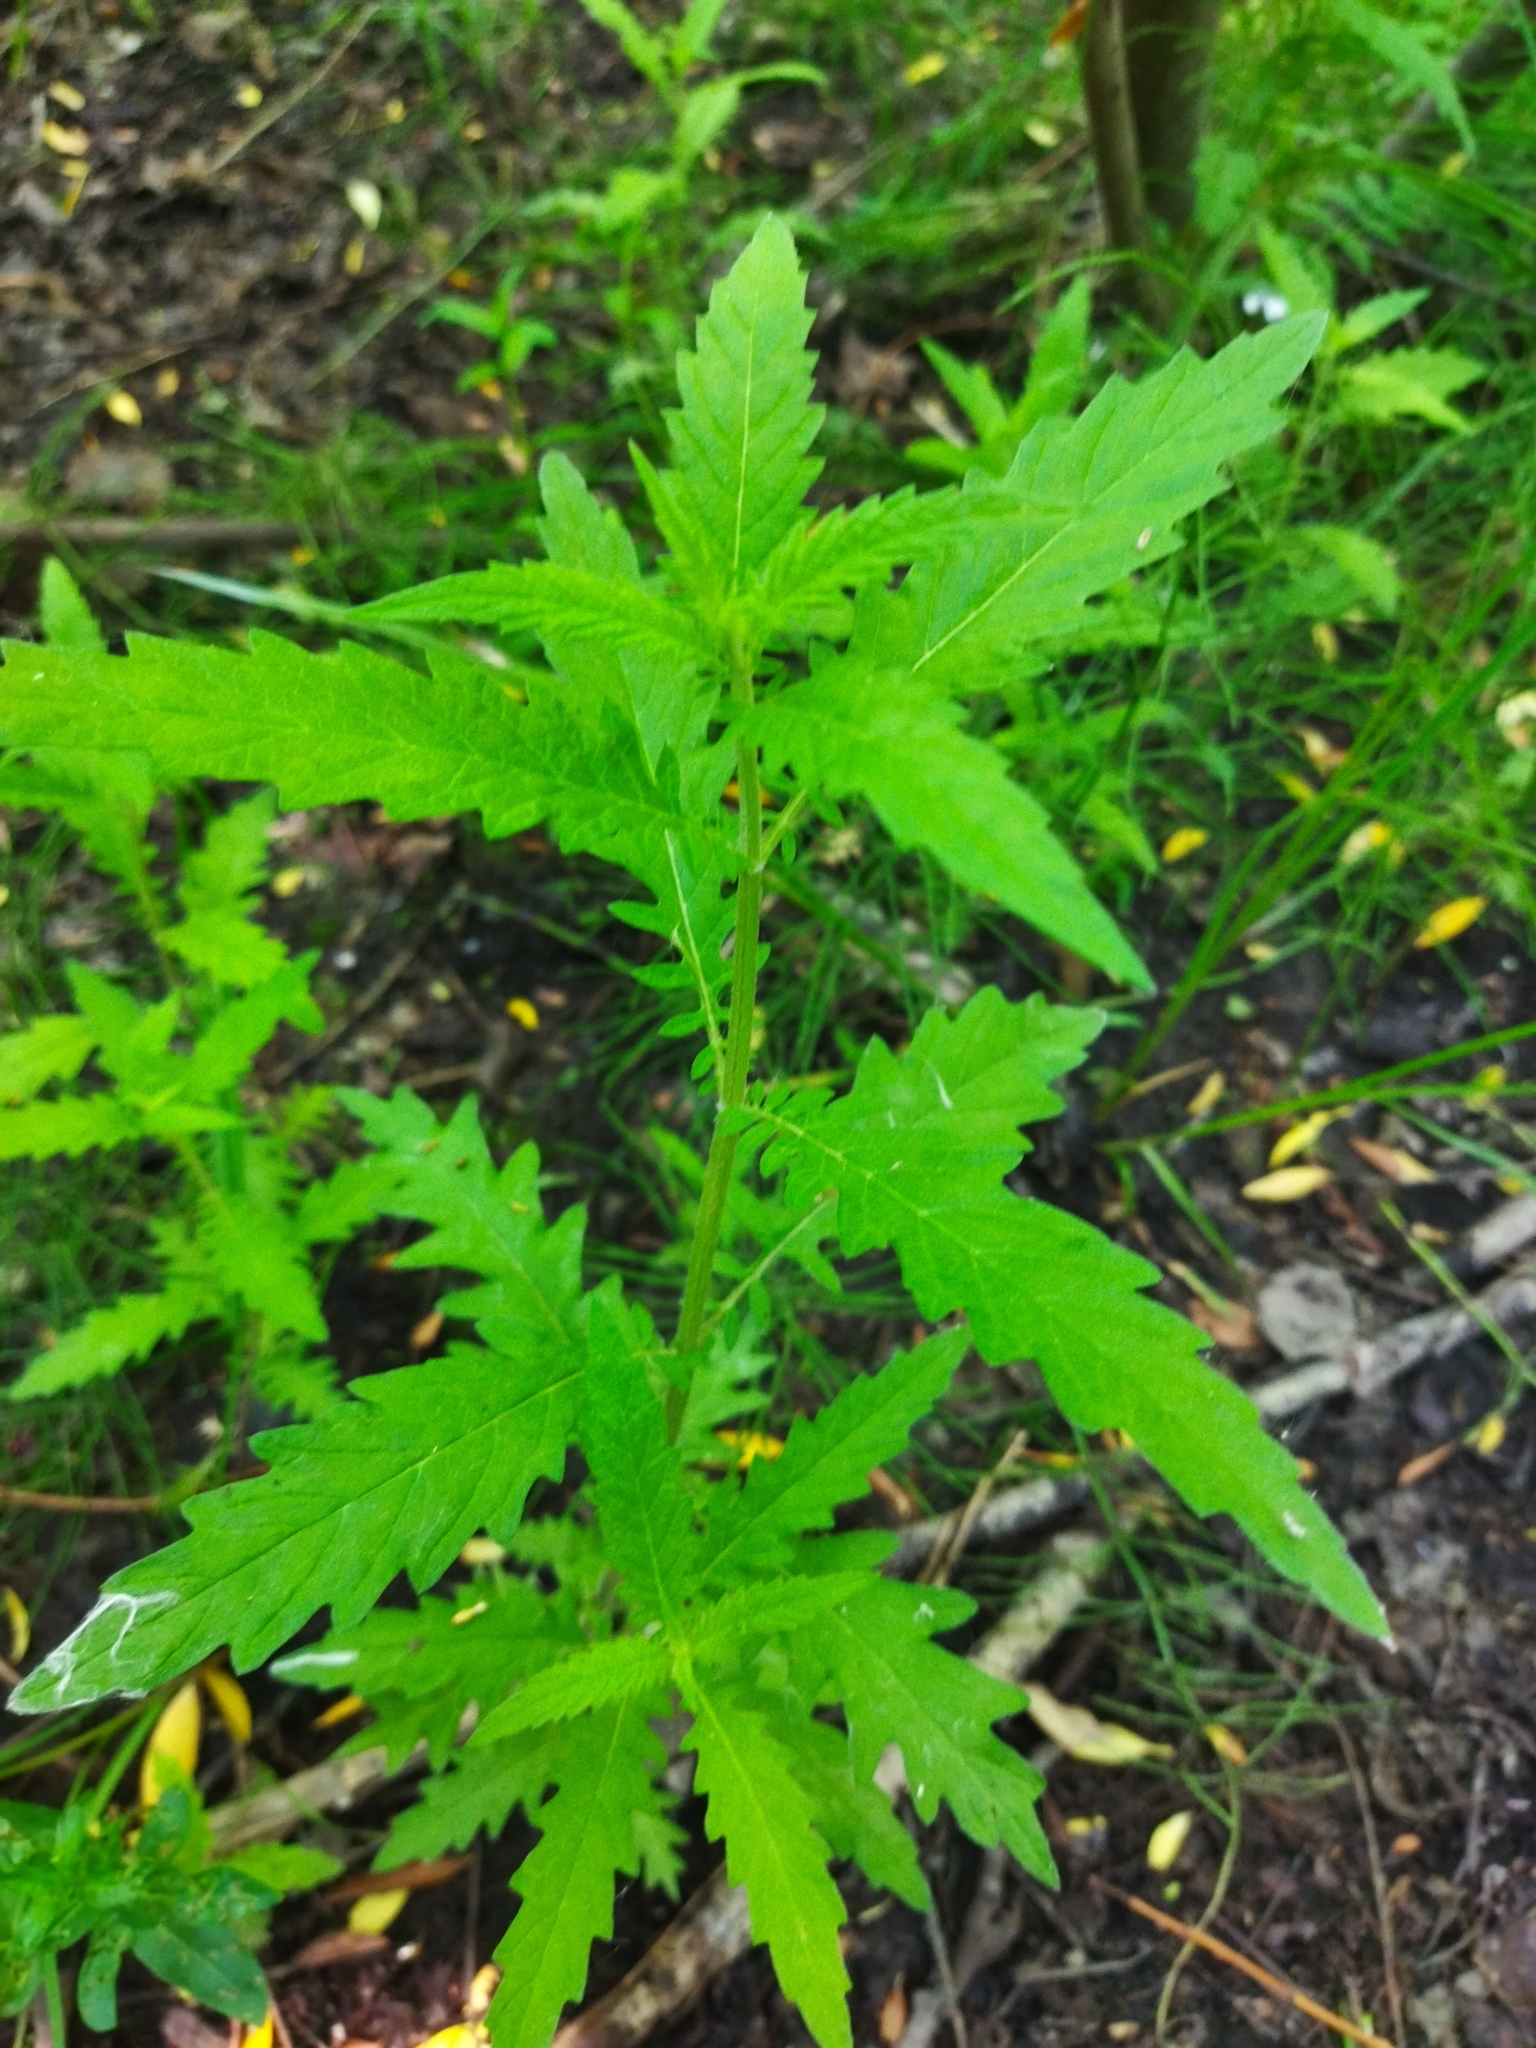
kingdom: Plantae
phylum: Tracheophyta
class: Magnoliopsida
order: Lamiales
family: Lamiaceae
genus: Lycopus
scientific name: Lycopus europaeus
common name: European bugleweed
